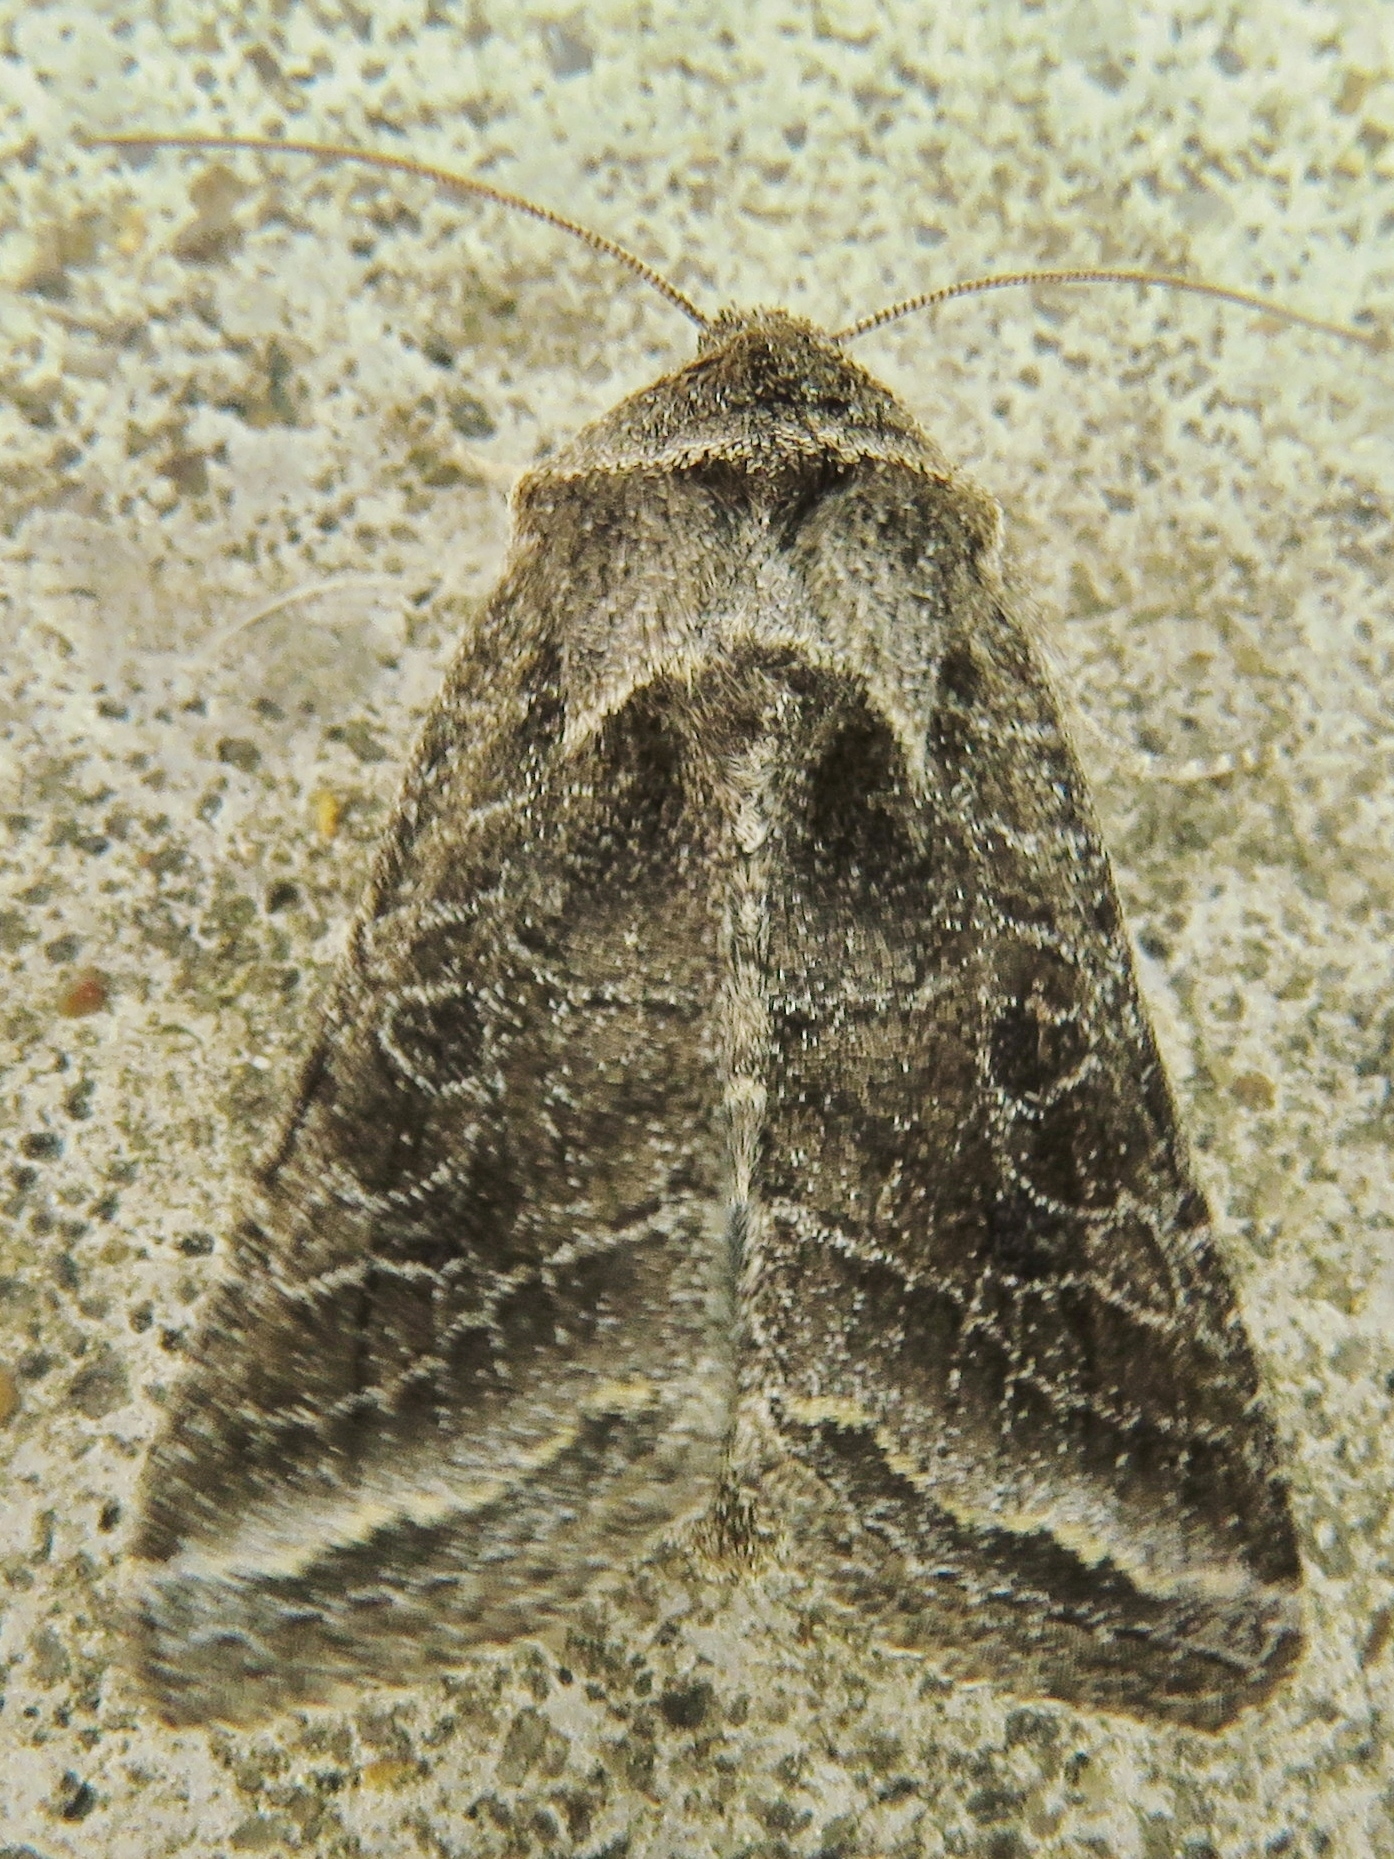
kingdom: Animalia
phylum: Arthropoda
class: Insecta
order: Lepidoptera
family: Noctuidae
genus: Lacinipolia
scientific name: Lacinipolia erecta
